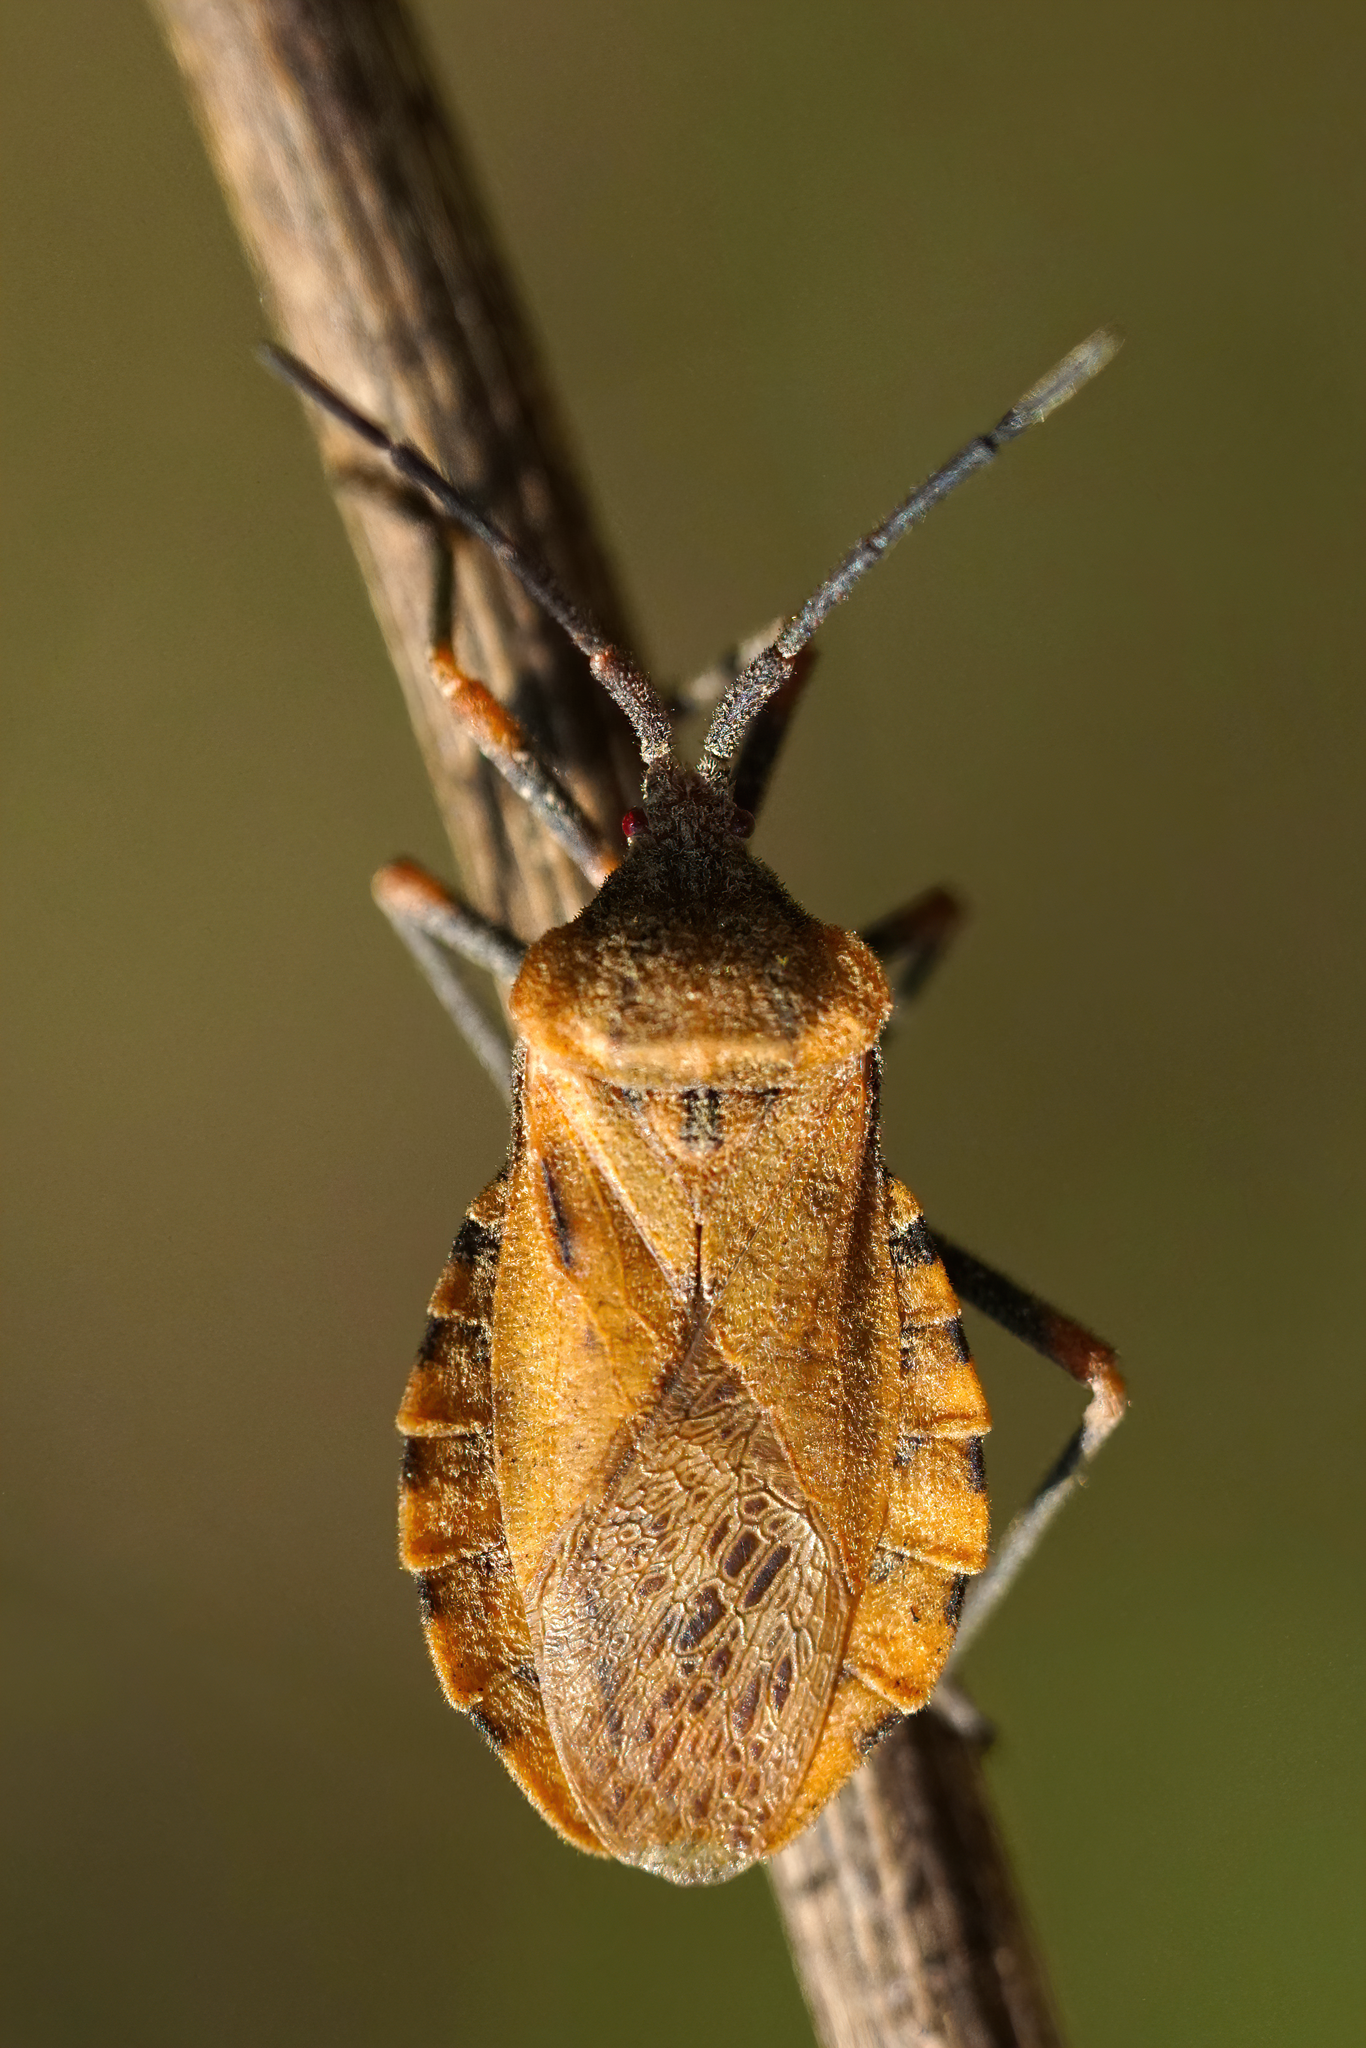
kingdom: Animalia
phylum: Arthropoda
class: Insecta
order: Hemiptera
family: Coreidae
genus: Spartocera
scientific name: Spartocera fusca
